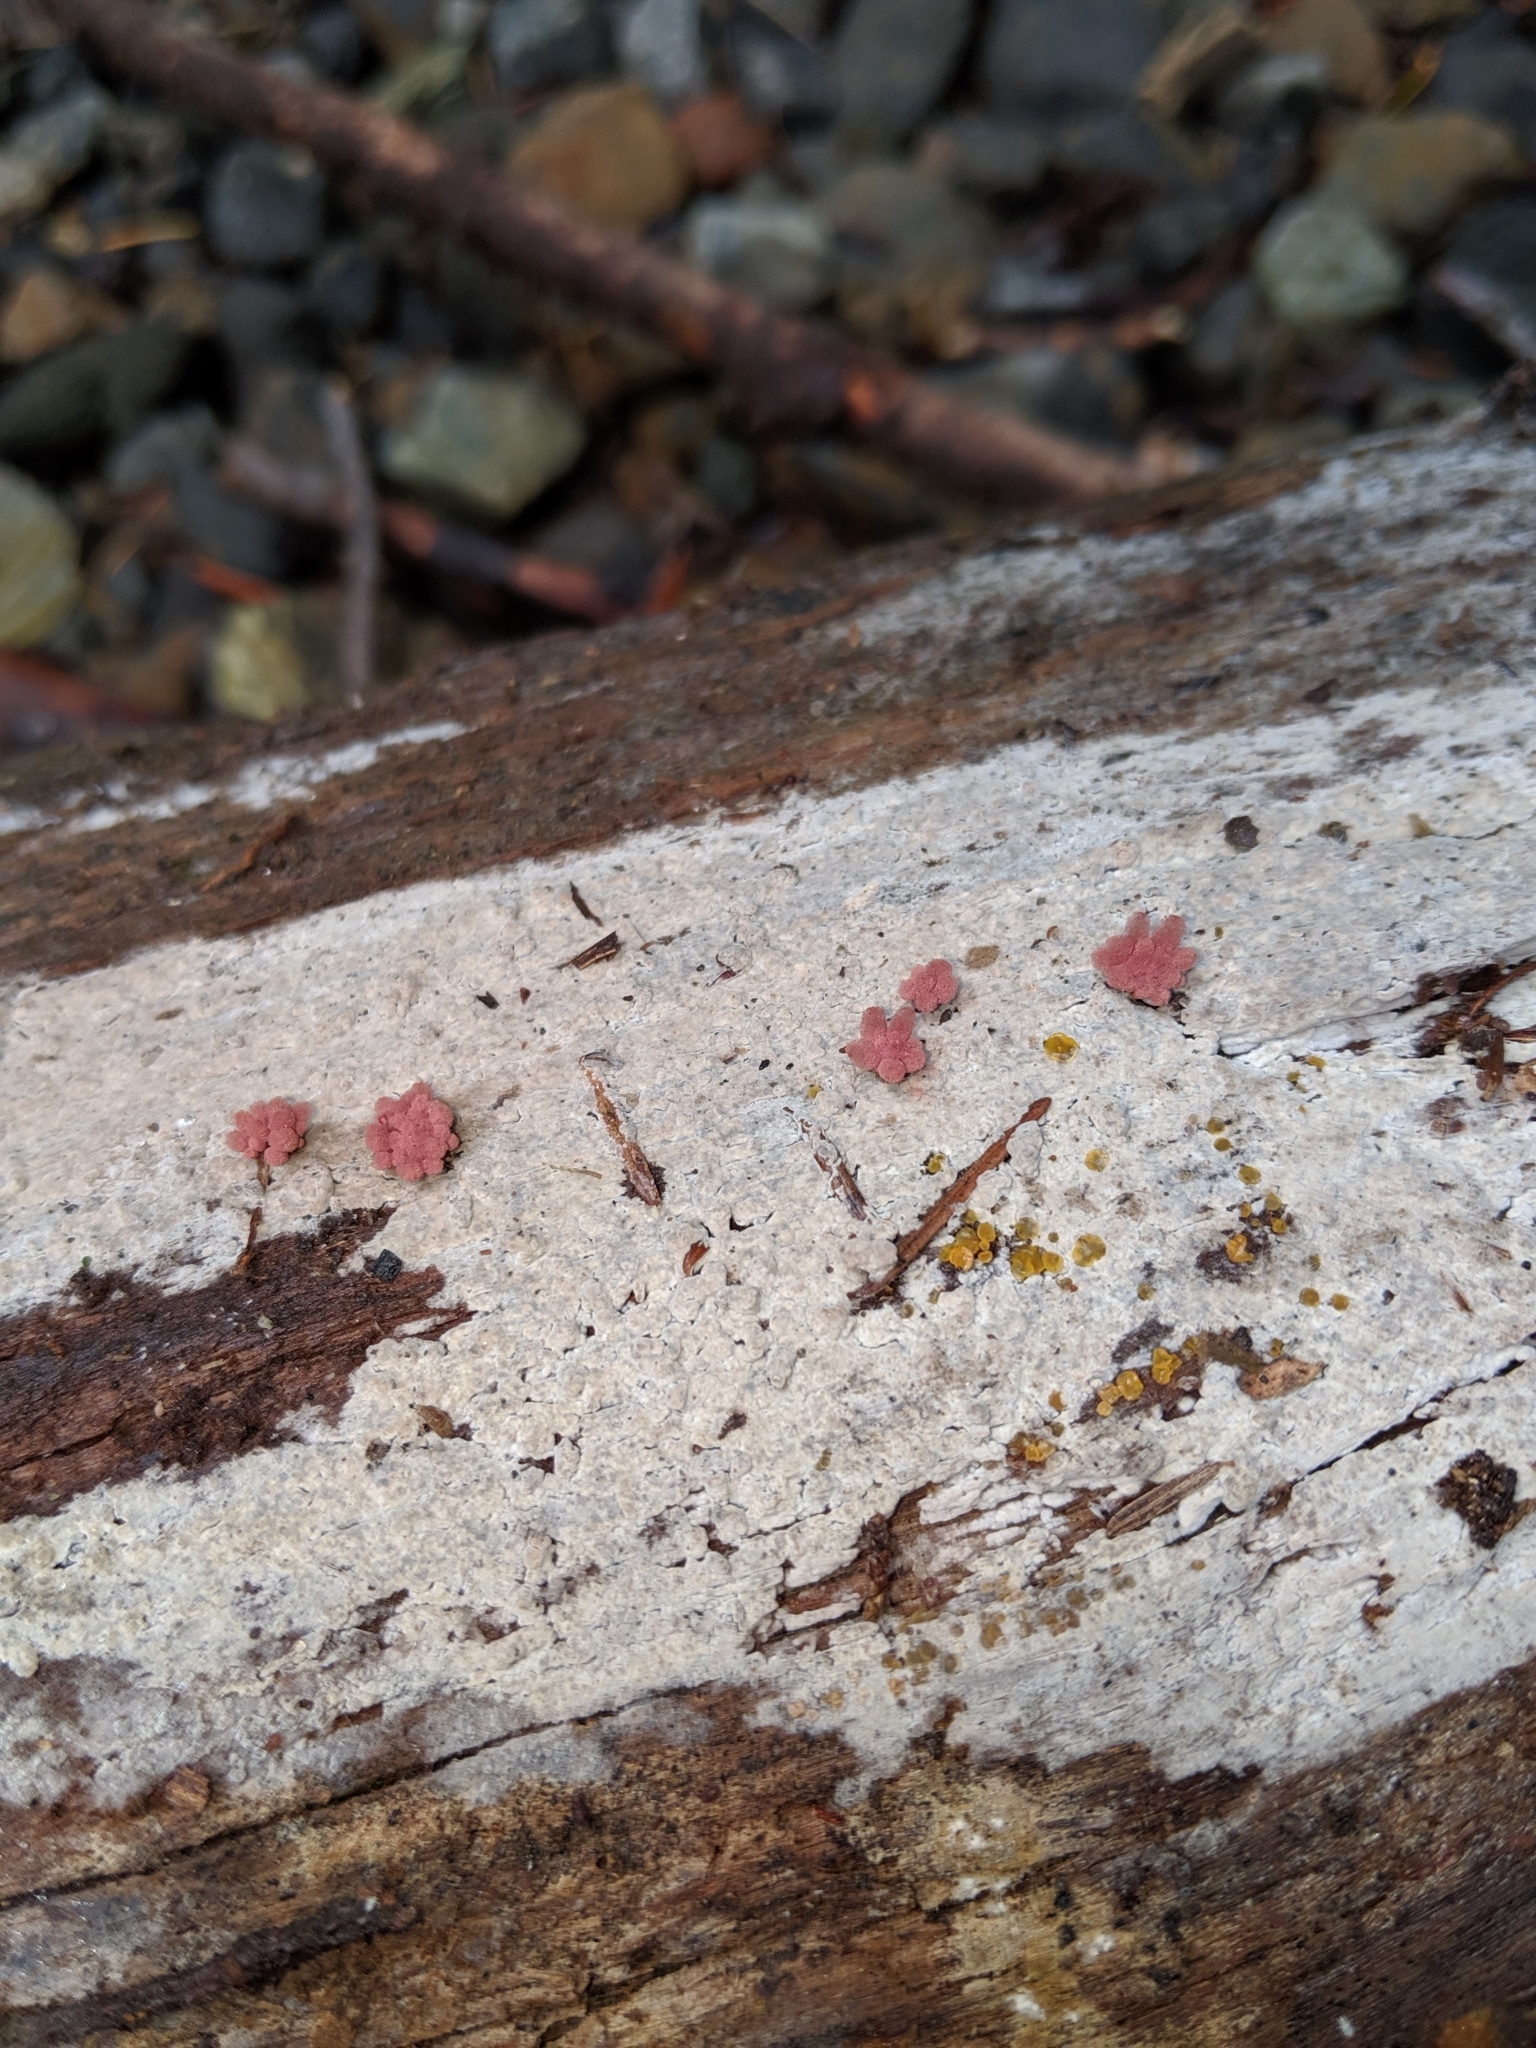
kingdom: Protozoa
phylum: Mycetozoa
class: Myxomycetes
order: Trichiales
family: Arcyriaceae
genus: Arcyria
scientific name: Arcyria denudata
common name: Carnival candy slime mold
